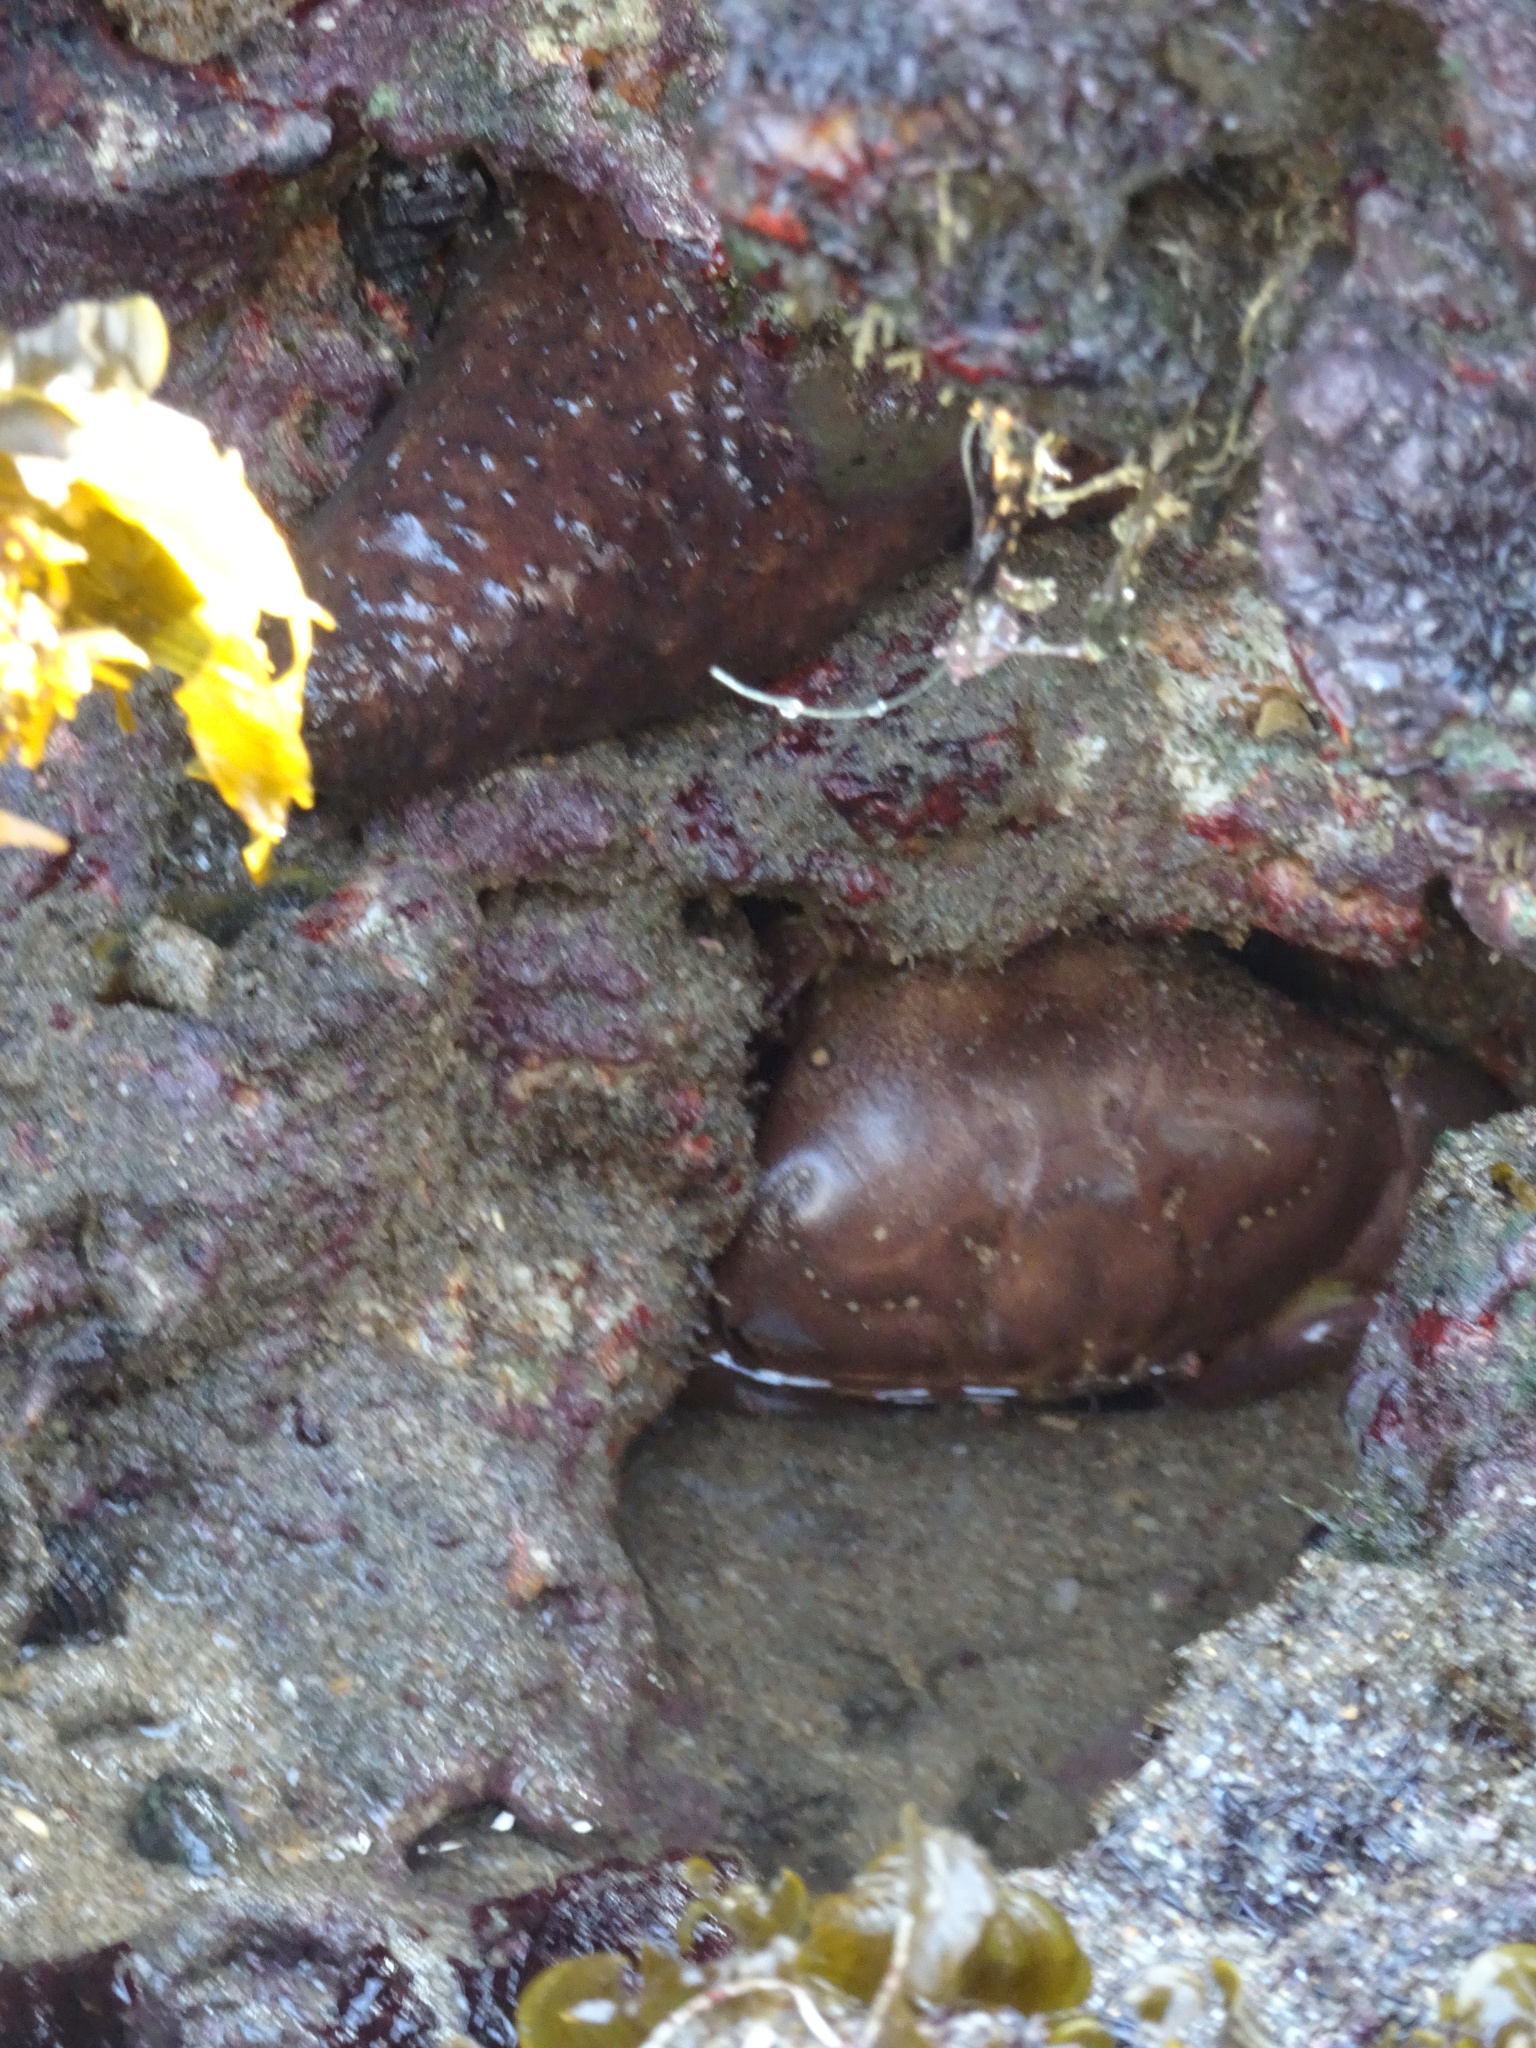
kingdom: Animalia
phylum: Arthropoda
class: Malacostraca
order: Decapoda
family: Menippidae
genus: Menippe
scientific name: Menippe rumphii
